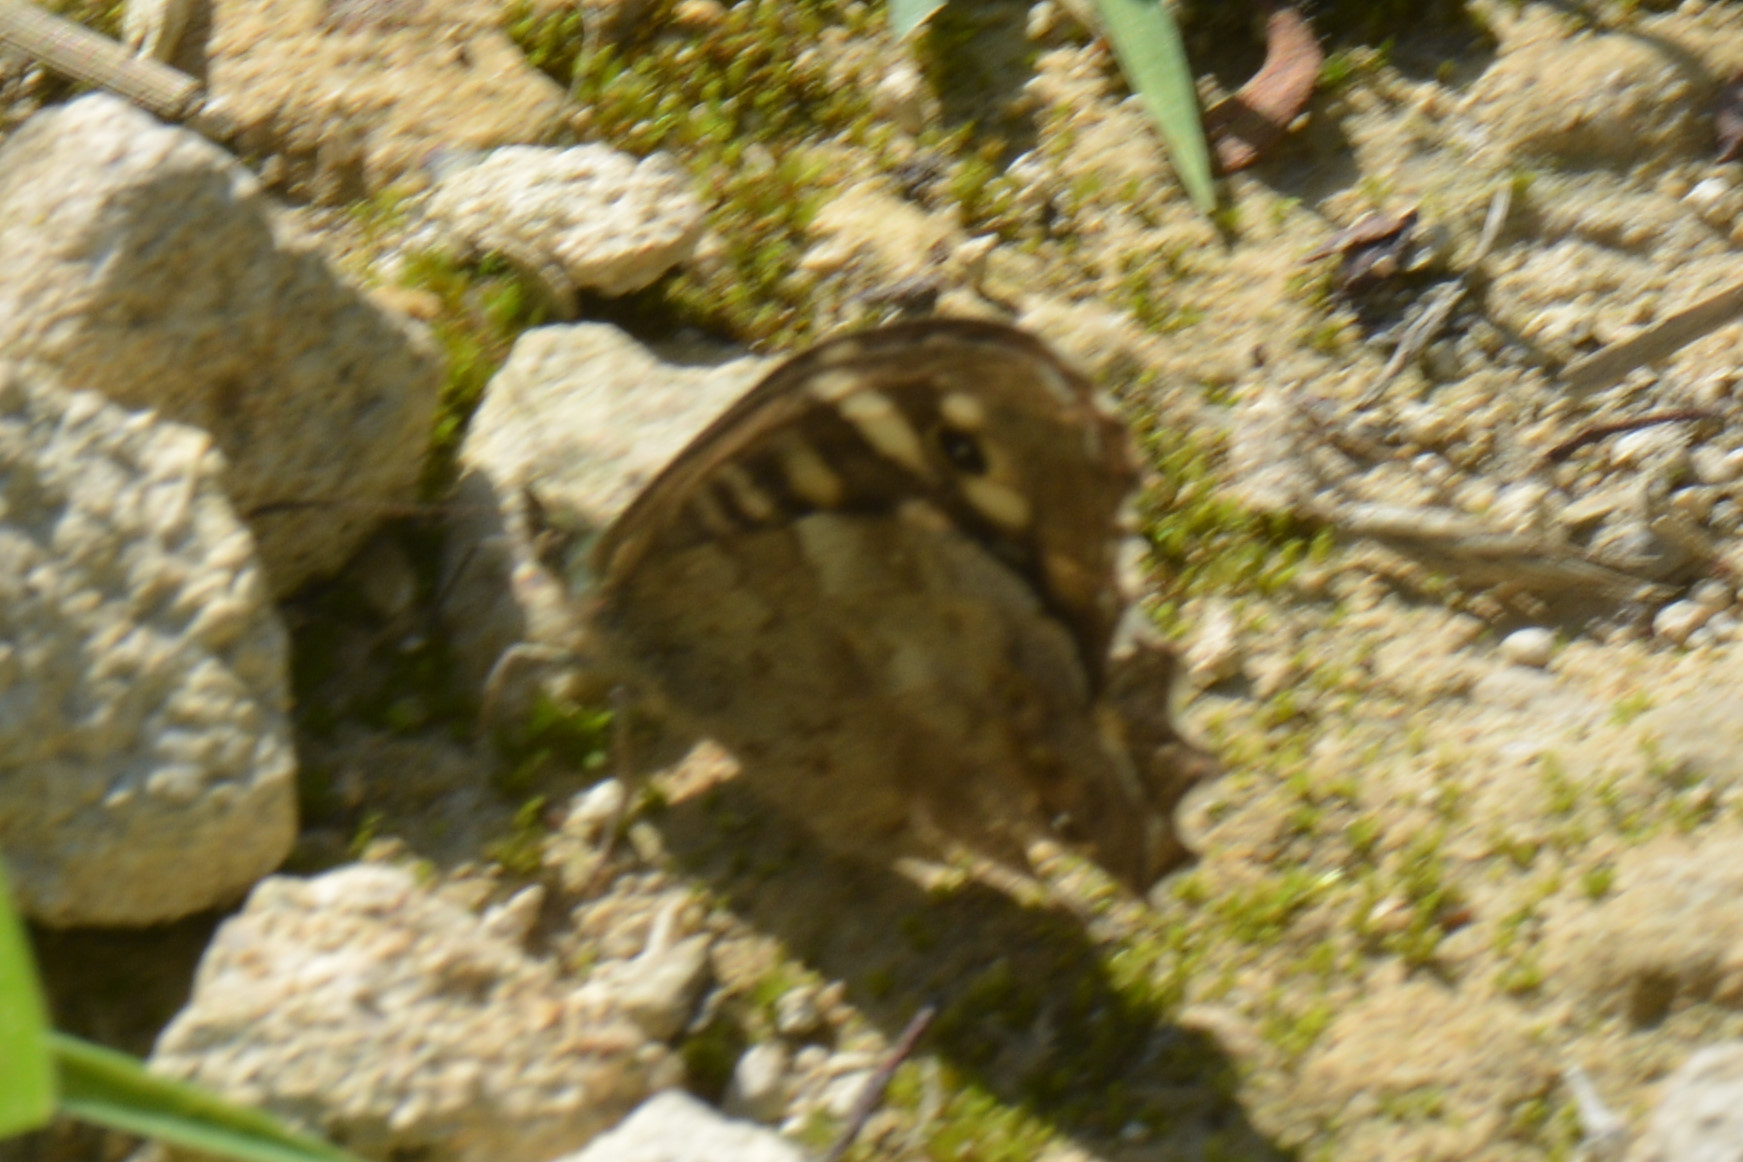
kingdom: Animalia
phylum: Arthropoda
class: Insecta
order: Lepidoptera
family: Nymphalidae
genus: Pararge
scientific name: Pararge aegeria
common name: Speckled wood
